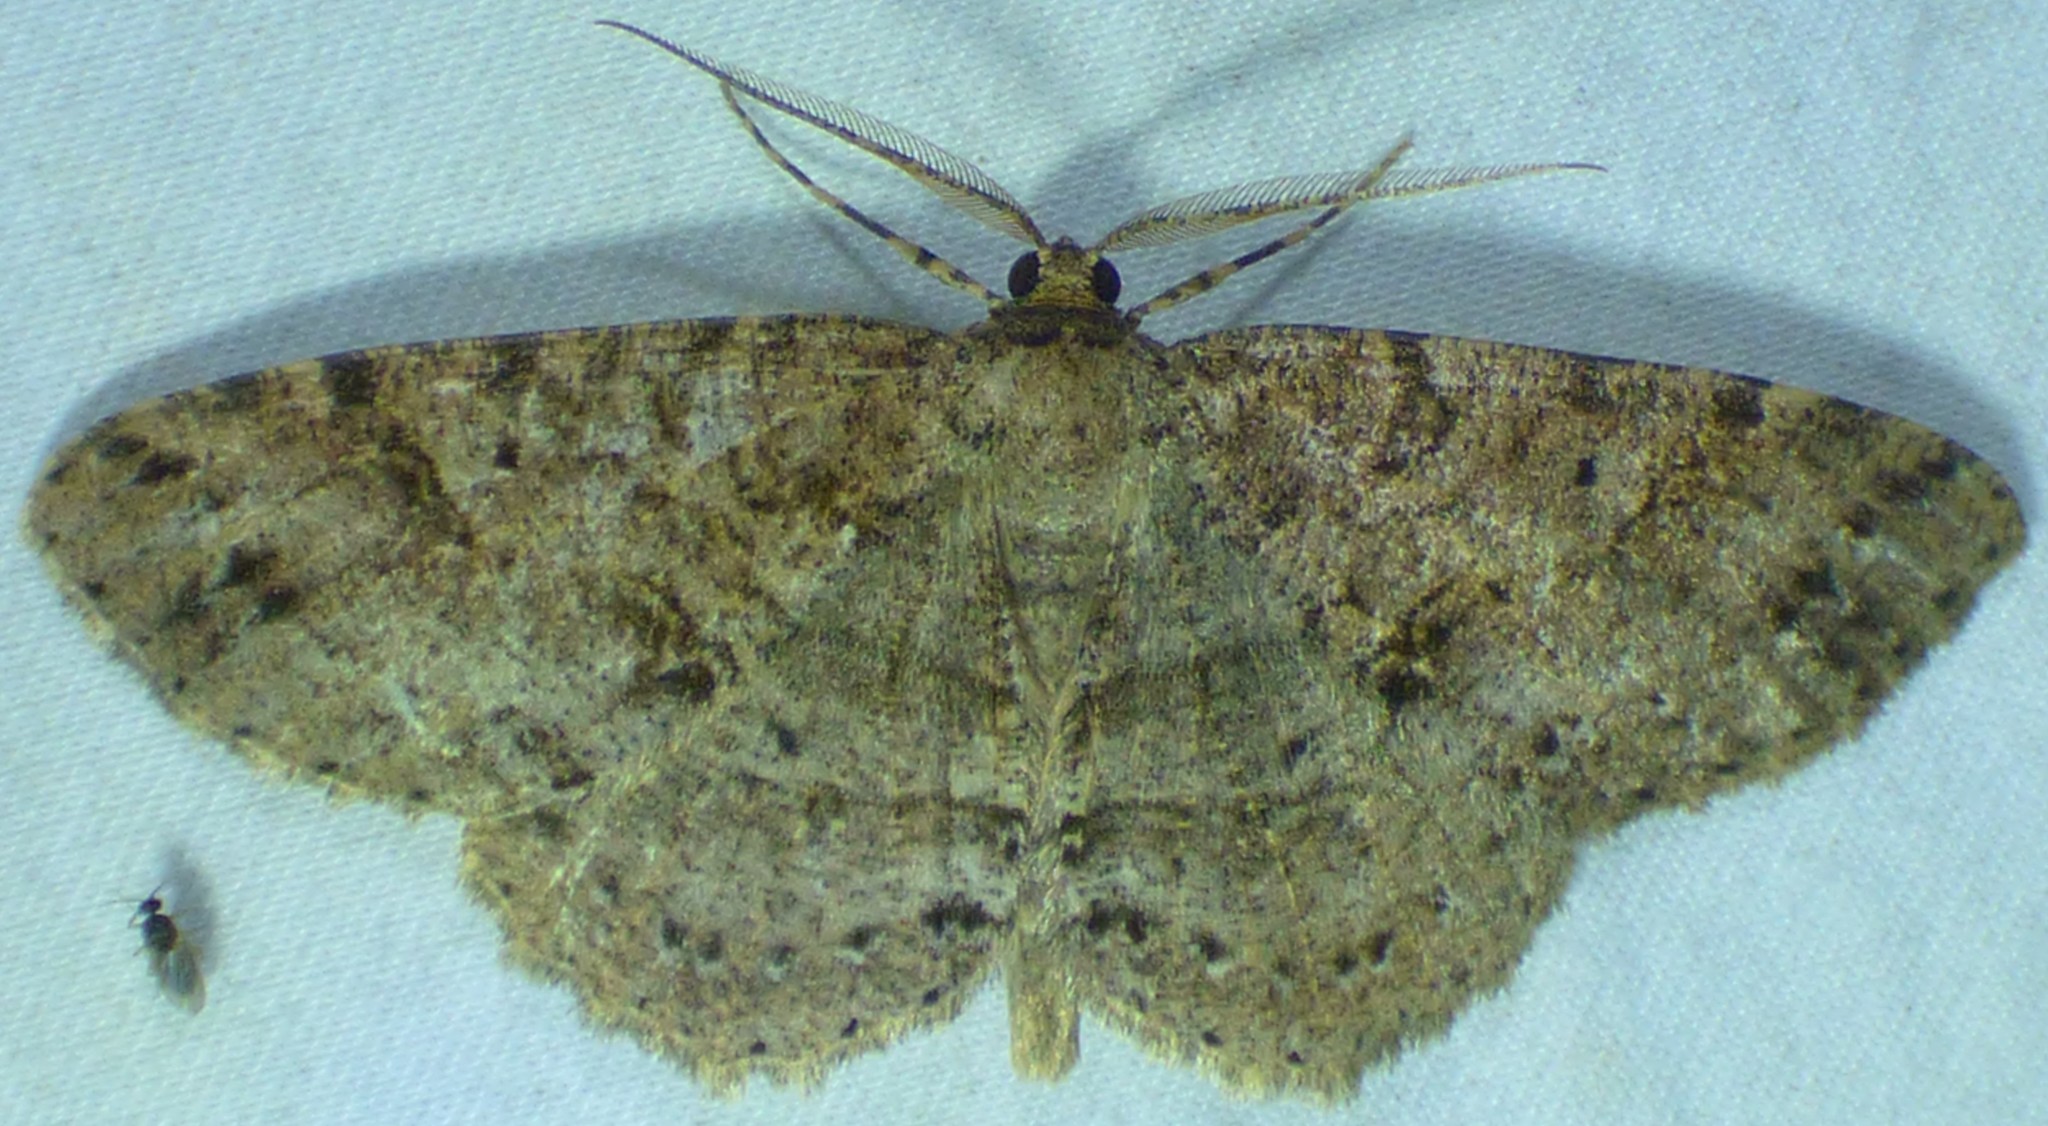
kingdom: Animalia
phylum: Arthropoda
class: Insecta
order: Lepidoptera
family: Geometridae
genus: Melanolophia
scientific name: Melanolophia canadaria
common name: Canadian melanolophia
